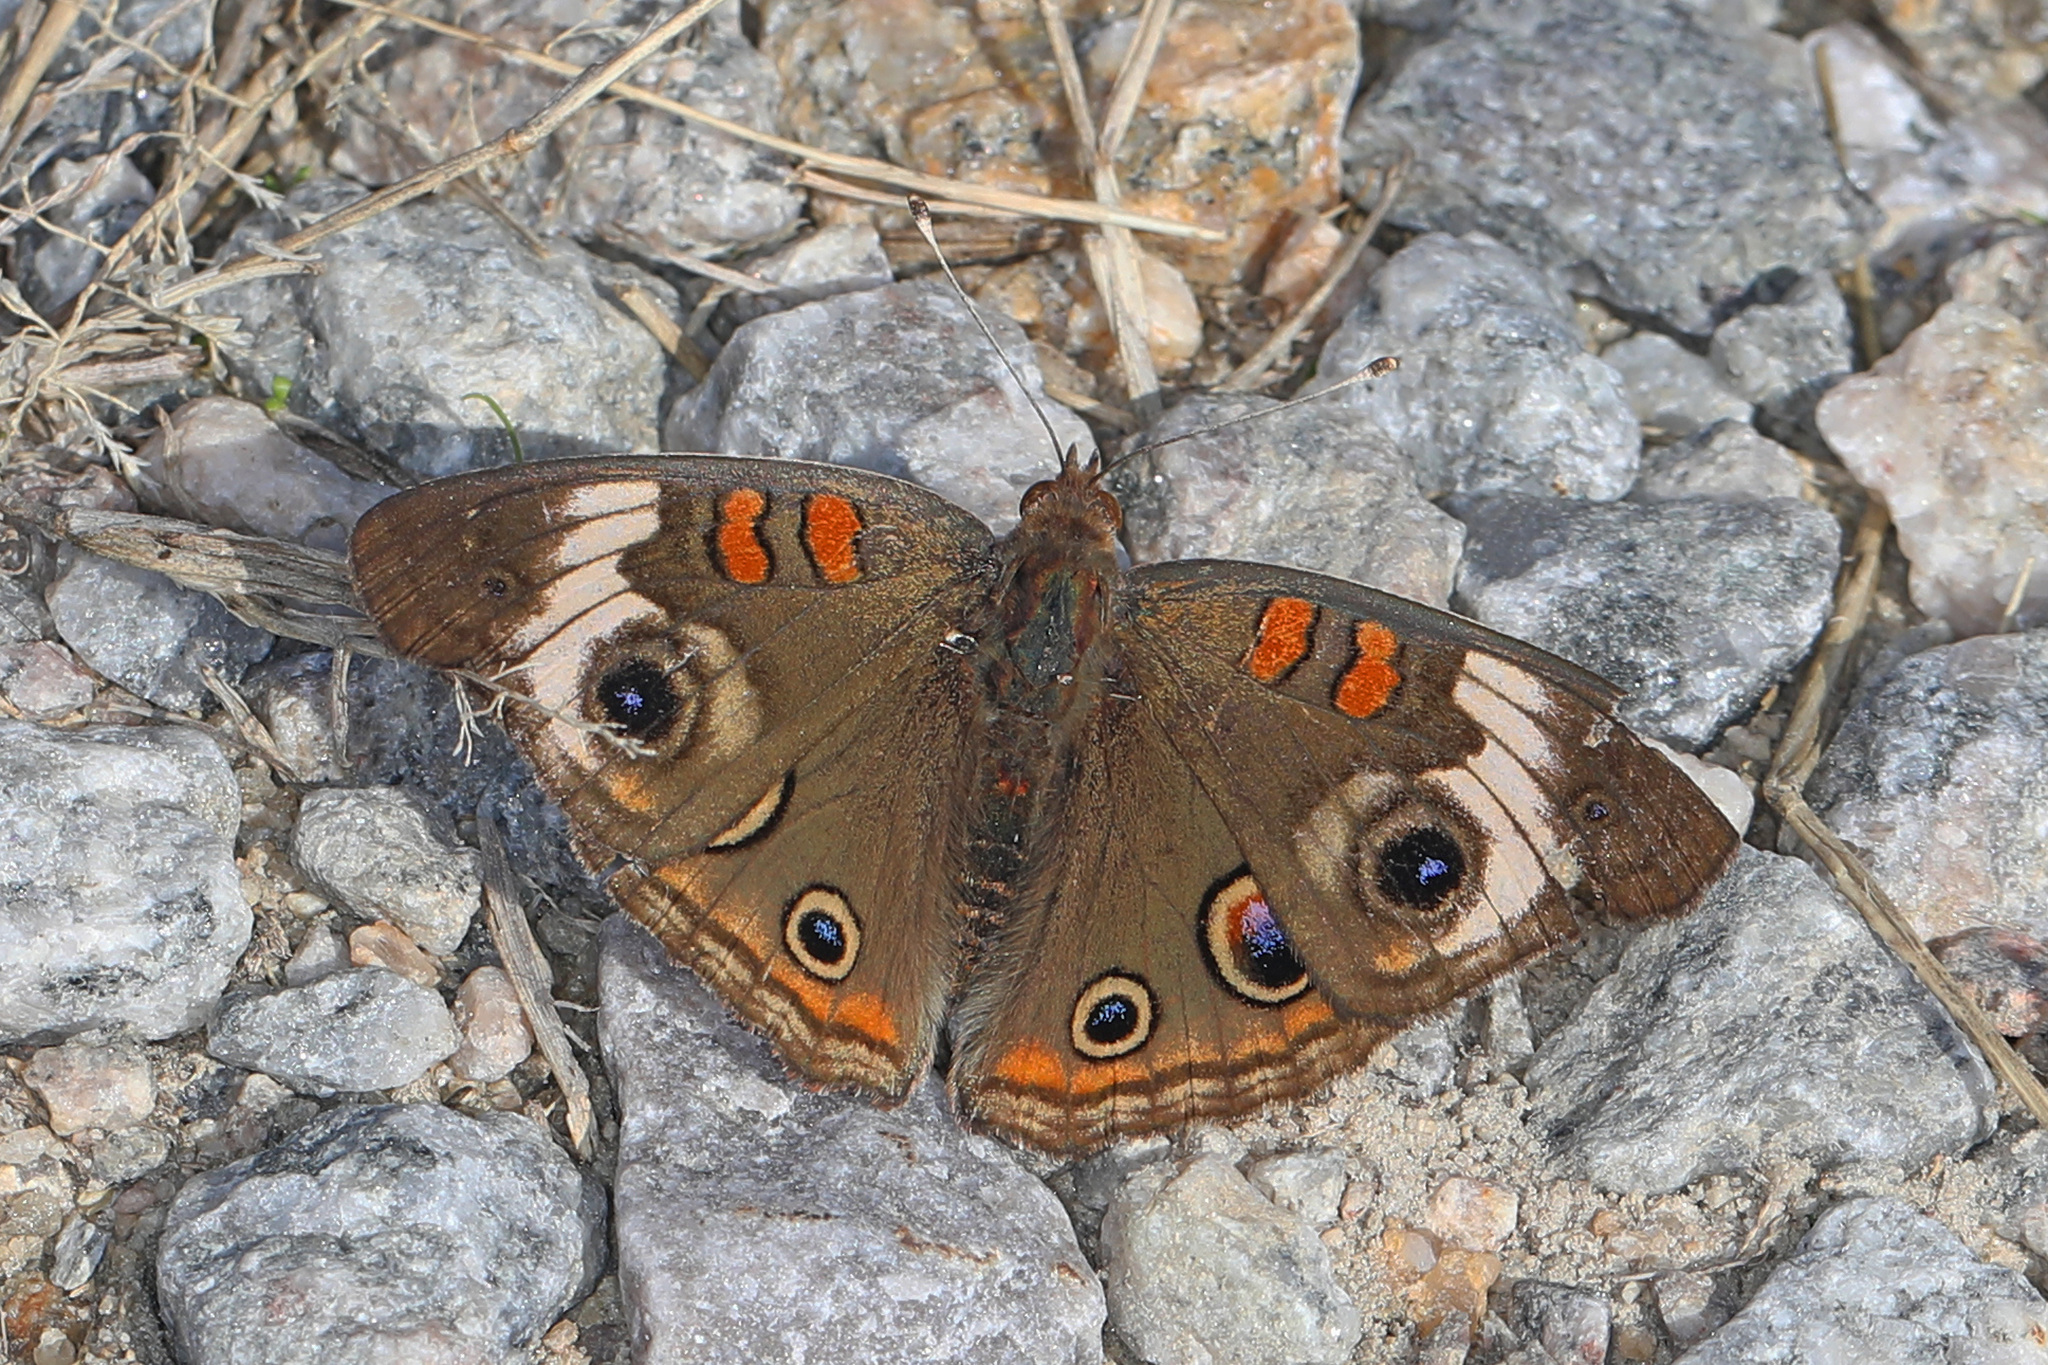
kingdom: Animalia
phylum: Arthropoda
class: Insecta
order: Lepidoptera
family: Nymphalidae
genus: Junonia
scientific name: Junonia coenia
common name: Common buckeye
